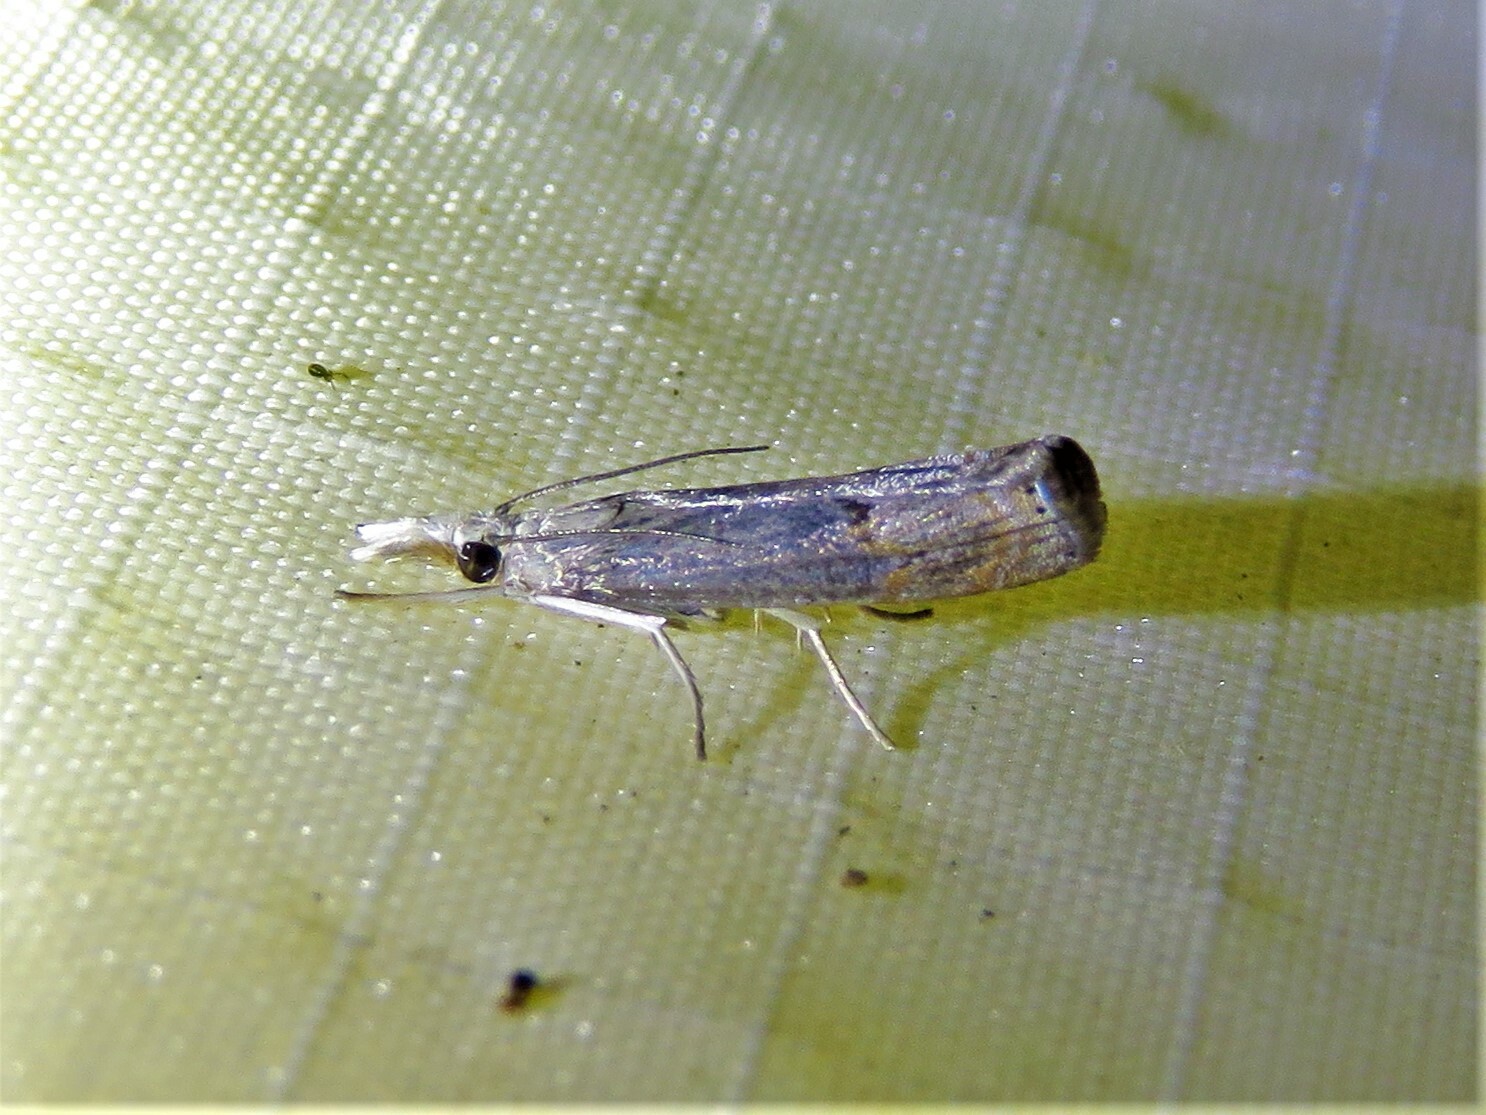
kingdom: Animalia
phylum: Arthropoda
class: Insecta
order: Lepidoptera
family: Crambidae
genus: Parapediasia
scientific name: Parapediasia teterellus
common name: Bluegrass webworm moth
